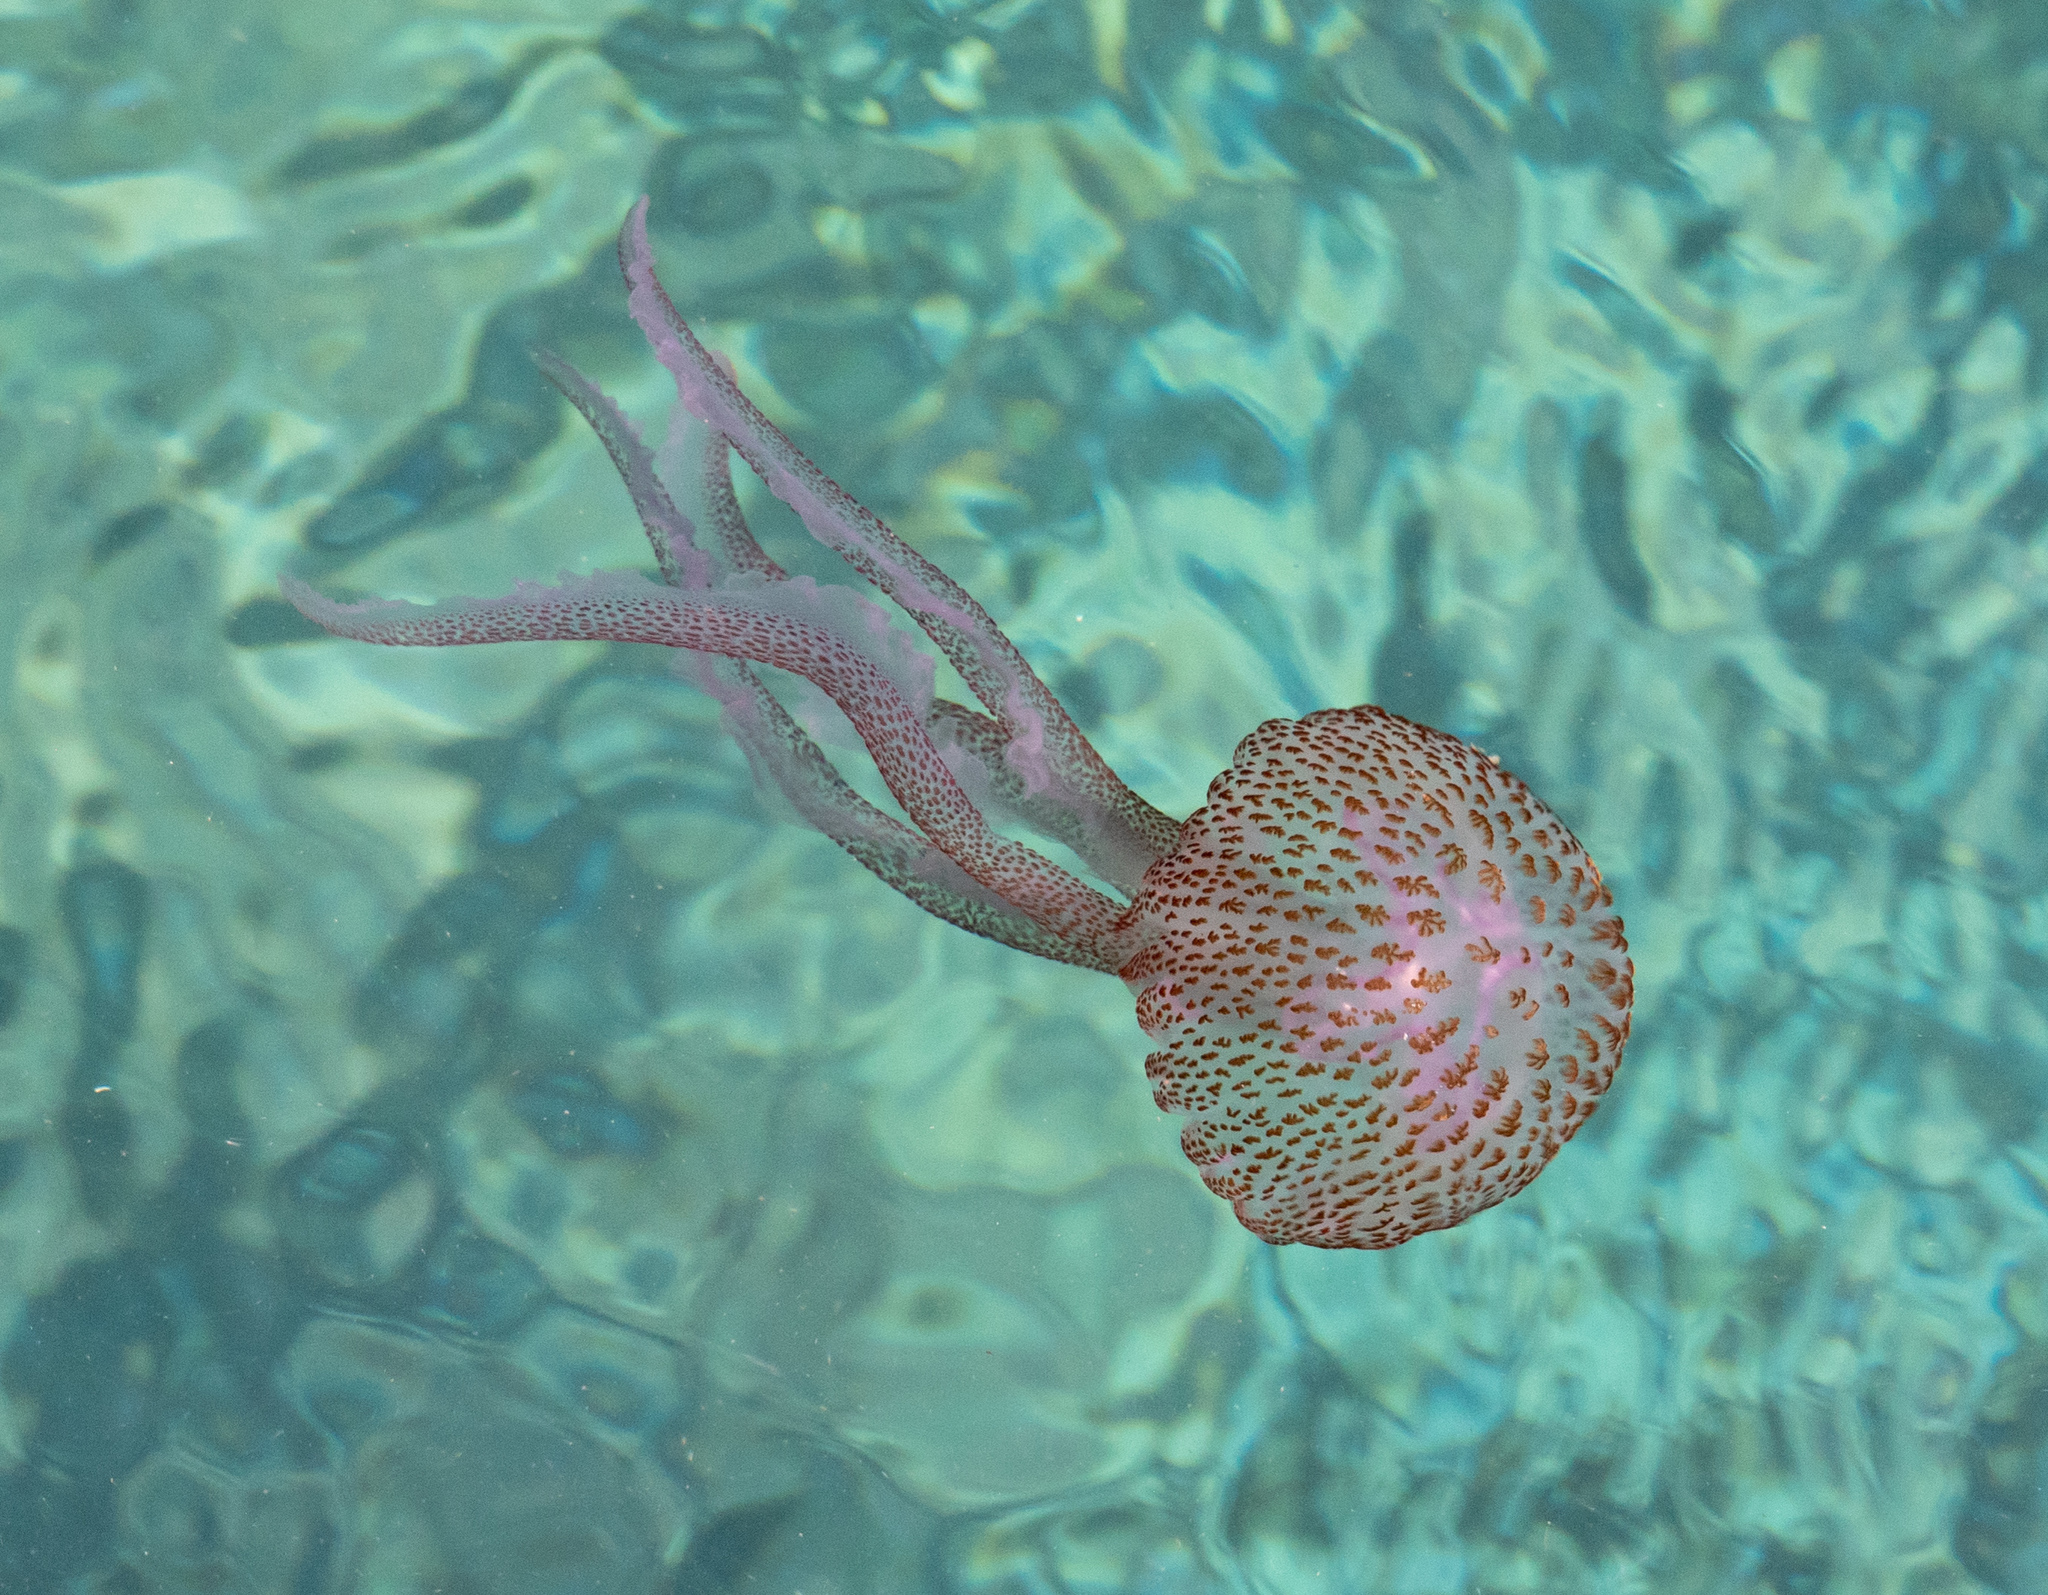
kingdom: Animalia
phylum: Cnidaria
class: Scyphozoa
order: Semaeostomeae
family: Pelagiidae
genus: Pelagia
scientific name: Pelagia noctiluca
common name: Mauve stinger
